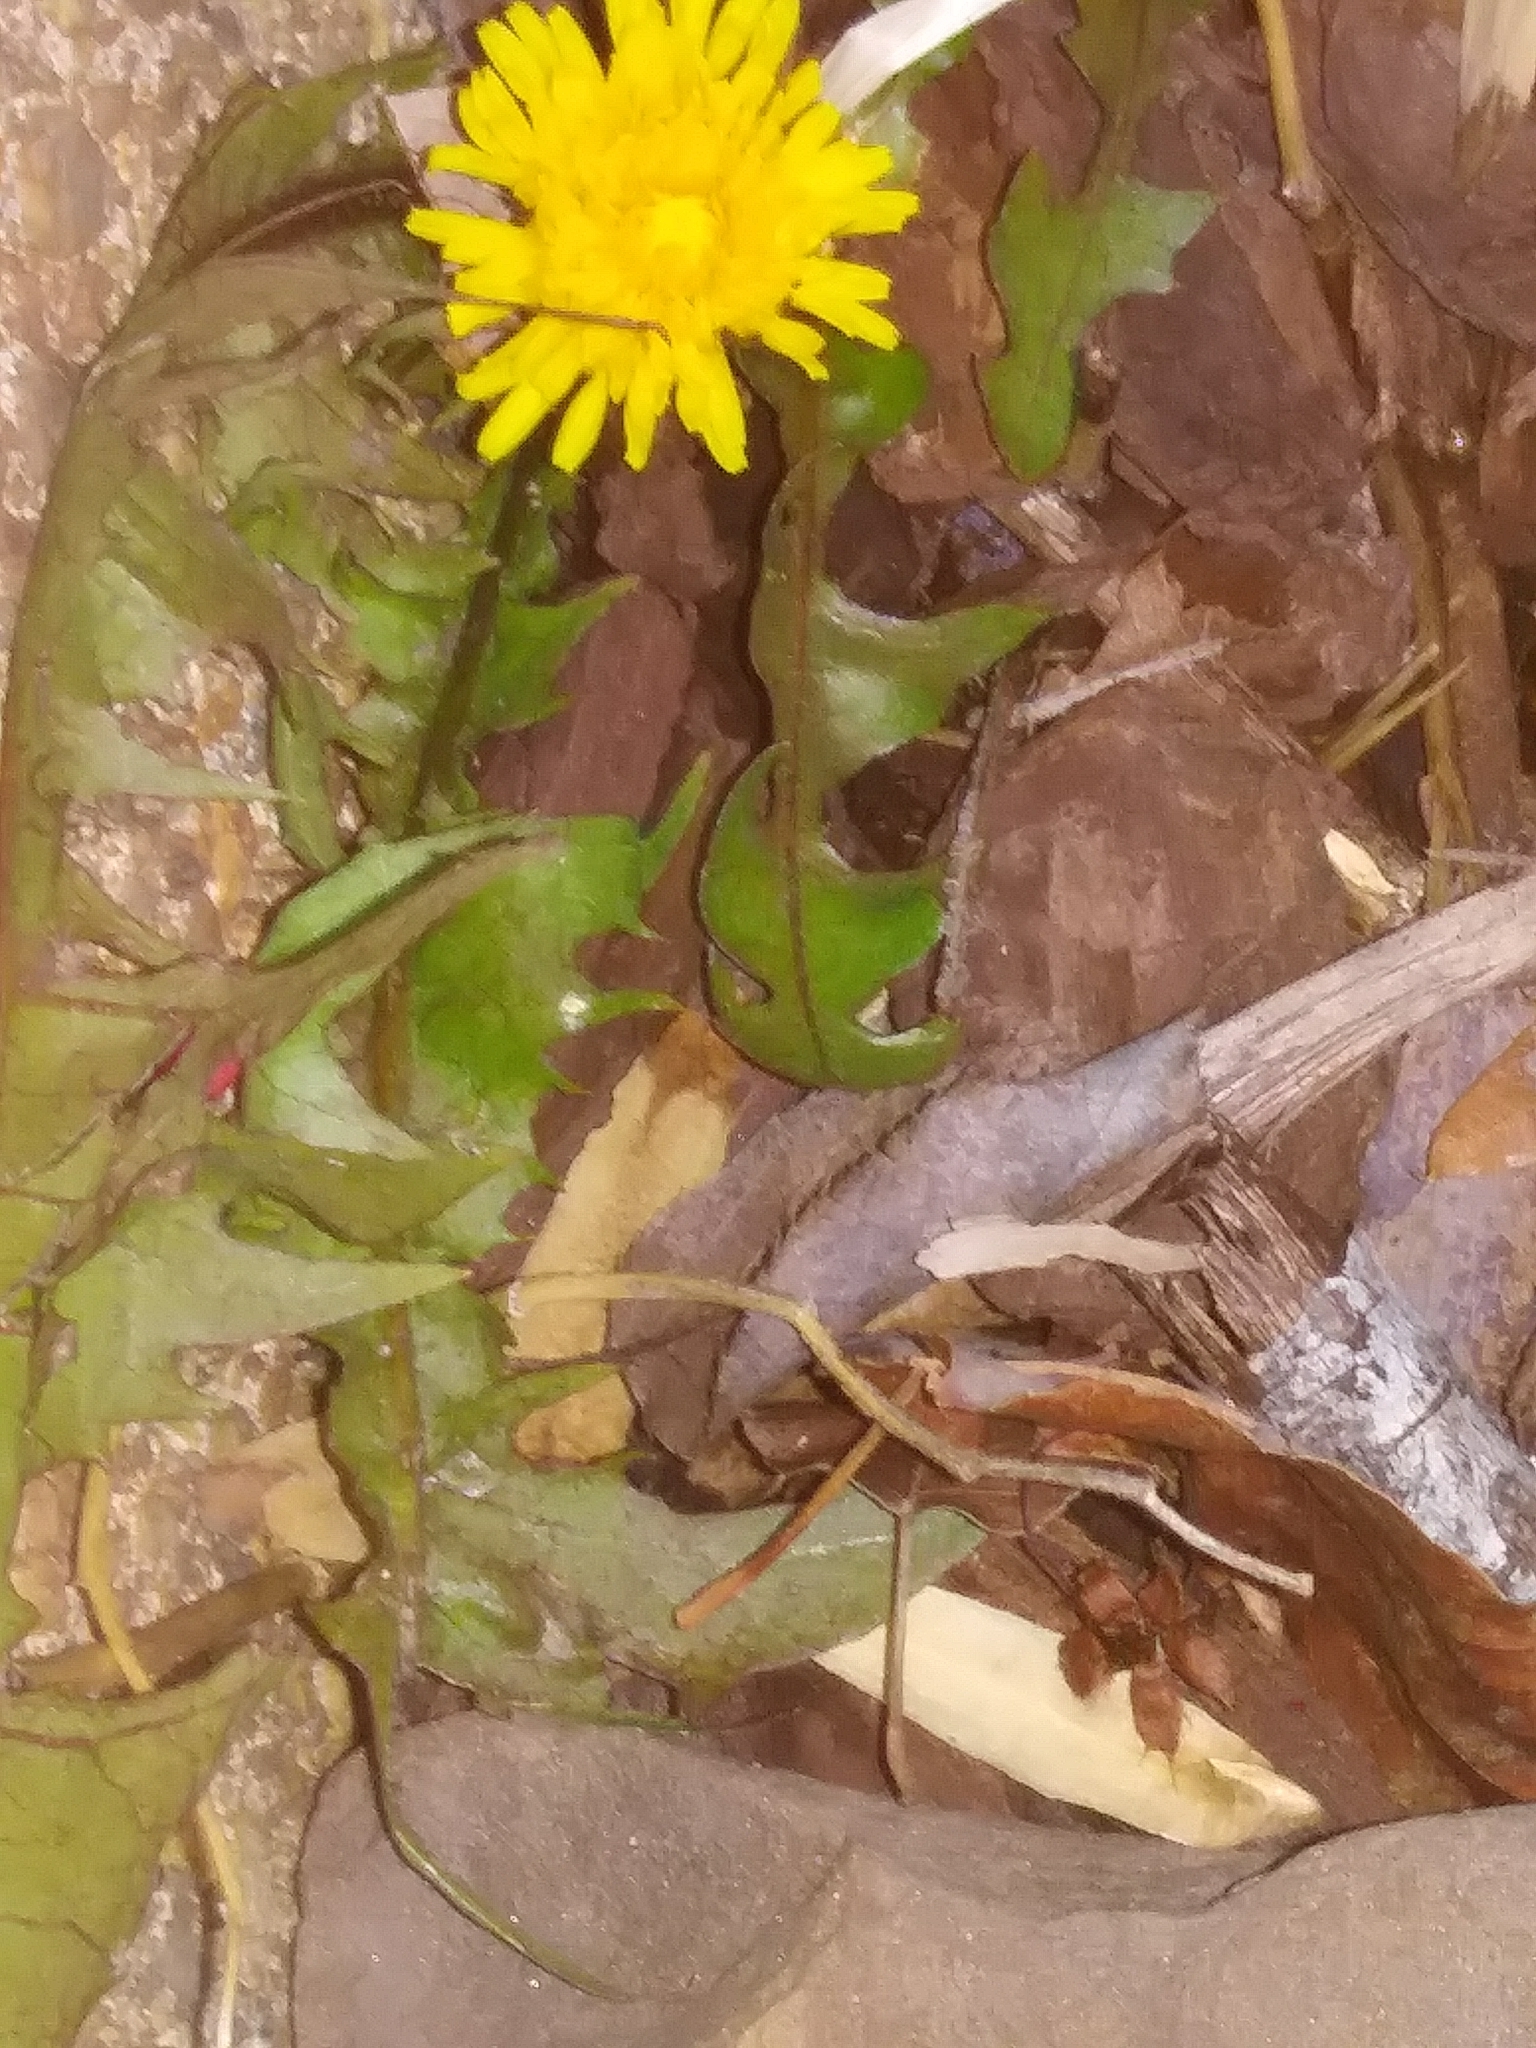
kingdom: Plantae
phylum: Tracheophyta
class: Magnoliopsida
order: Asterales
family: Asteraceae
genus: Taraxacum
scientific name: Taraxacum officinale
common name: Common dandelion
